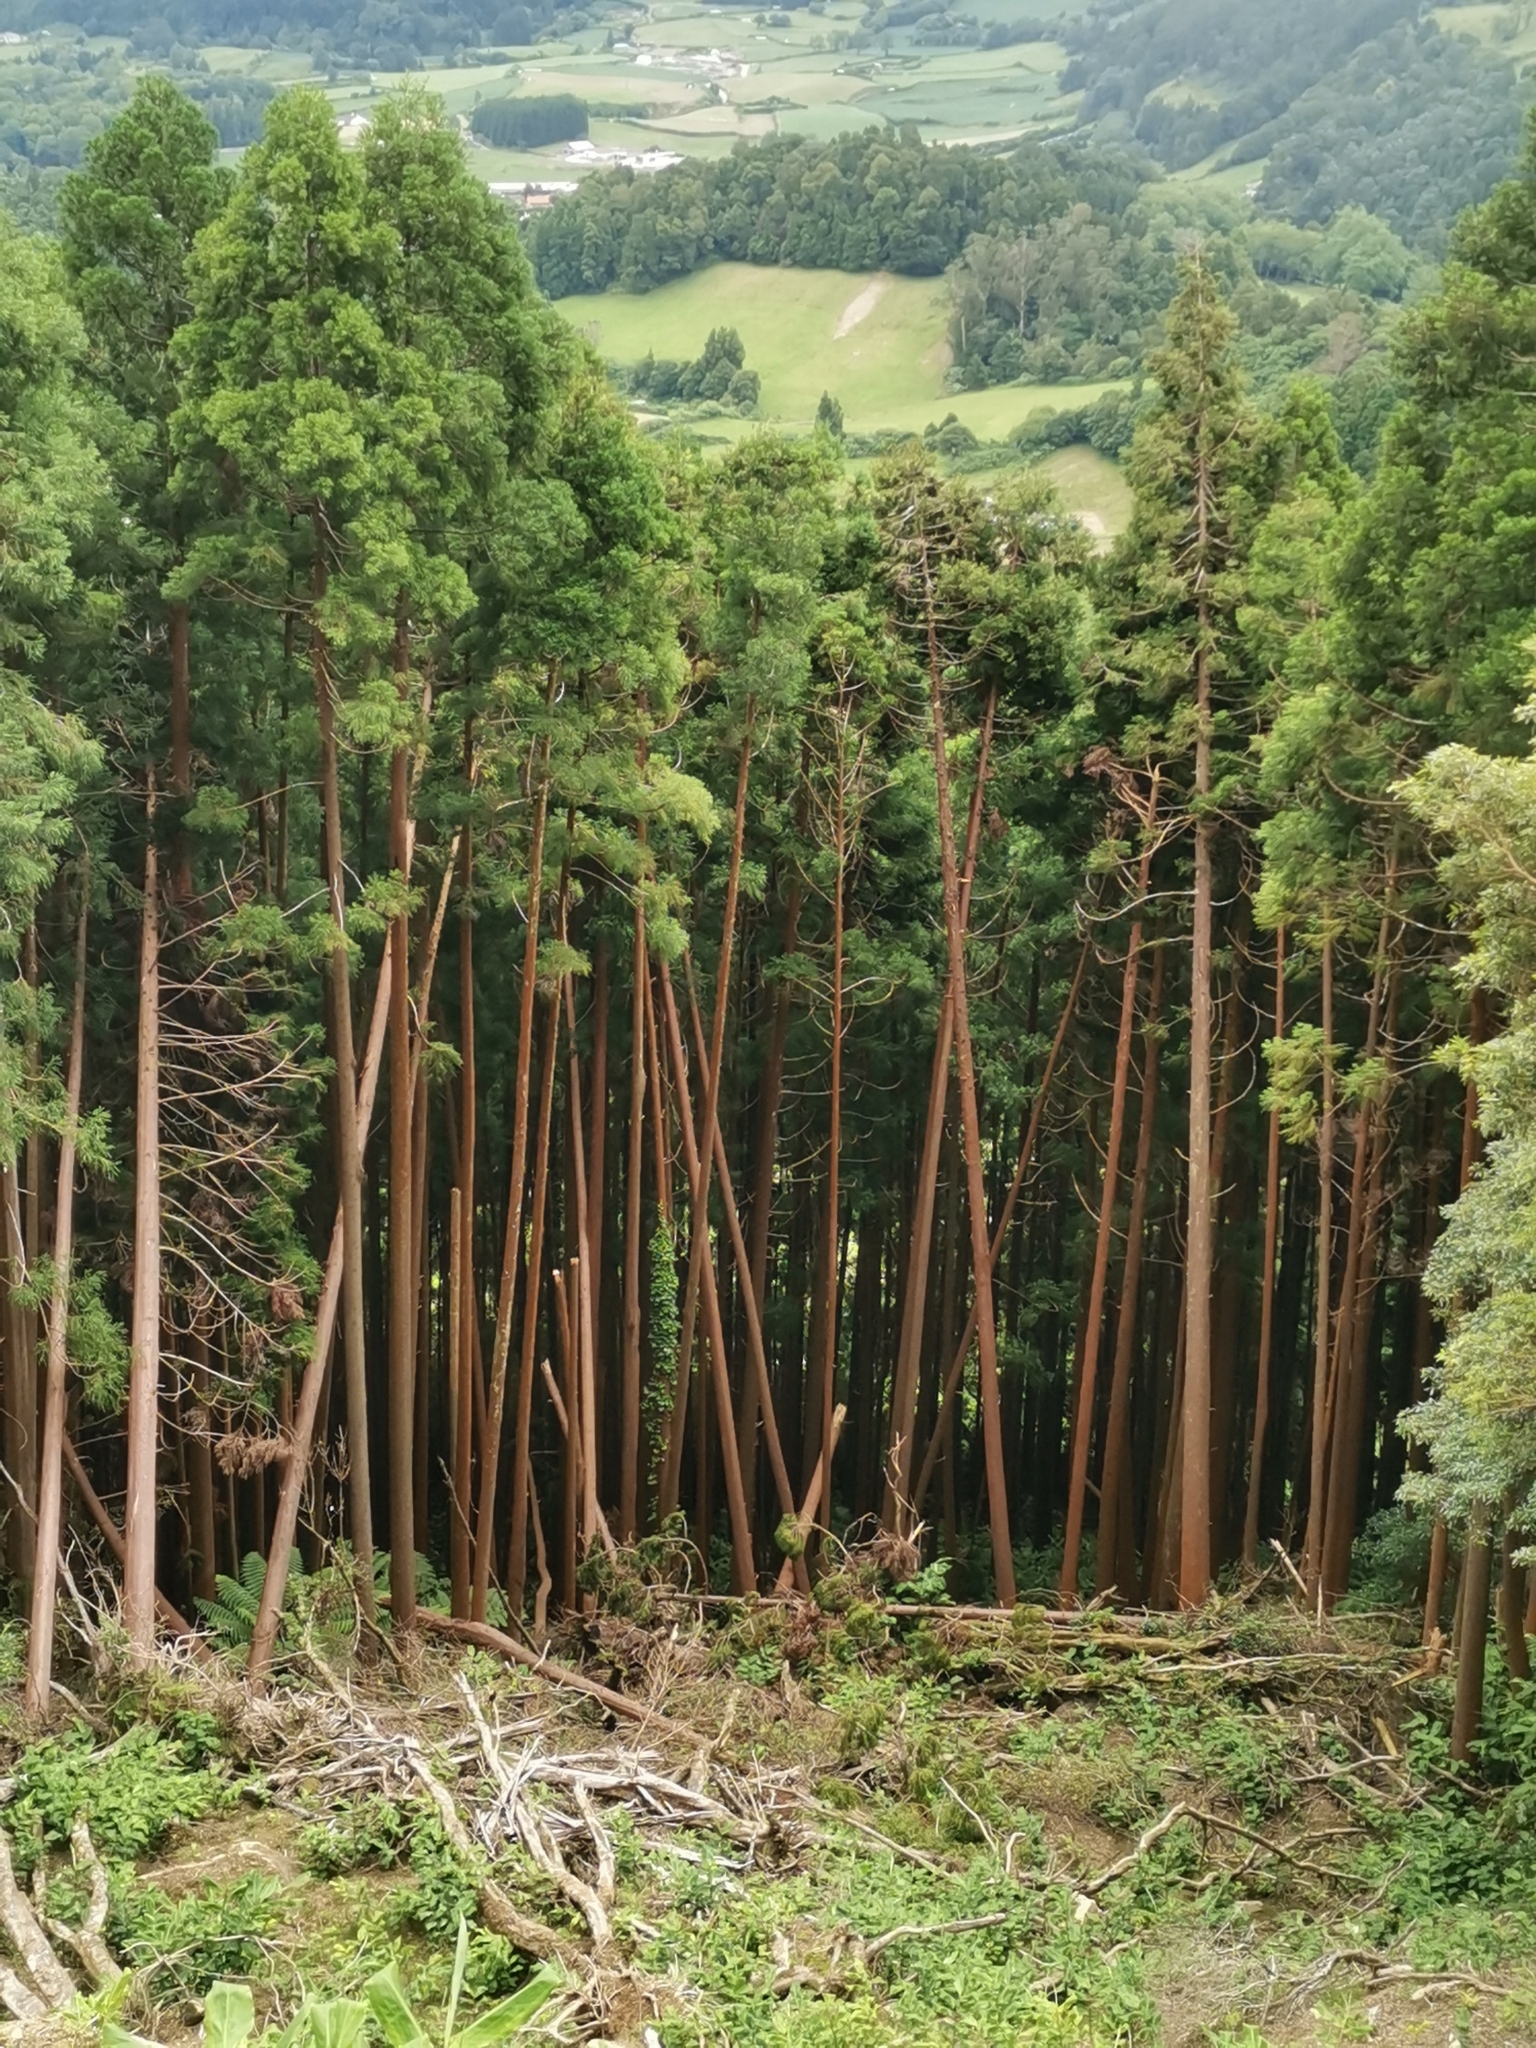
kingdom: Plantae
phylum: Tracheophyta
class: Pinopsida
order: Pinales
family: Cupressaceae
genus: Cryptomeria
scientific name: Cryptomeria japonica
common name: Japanese cedar
